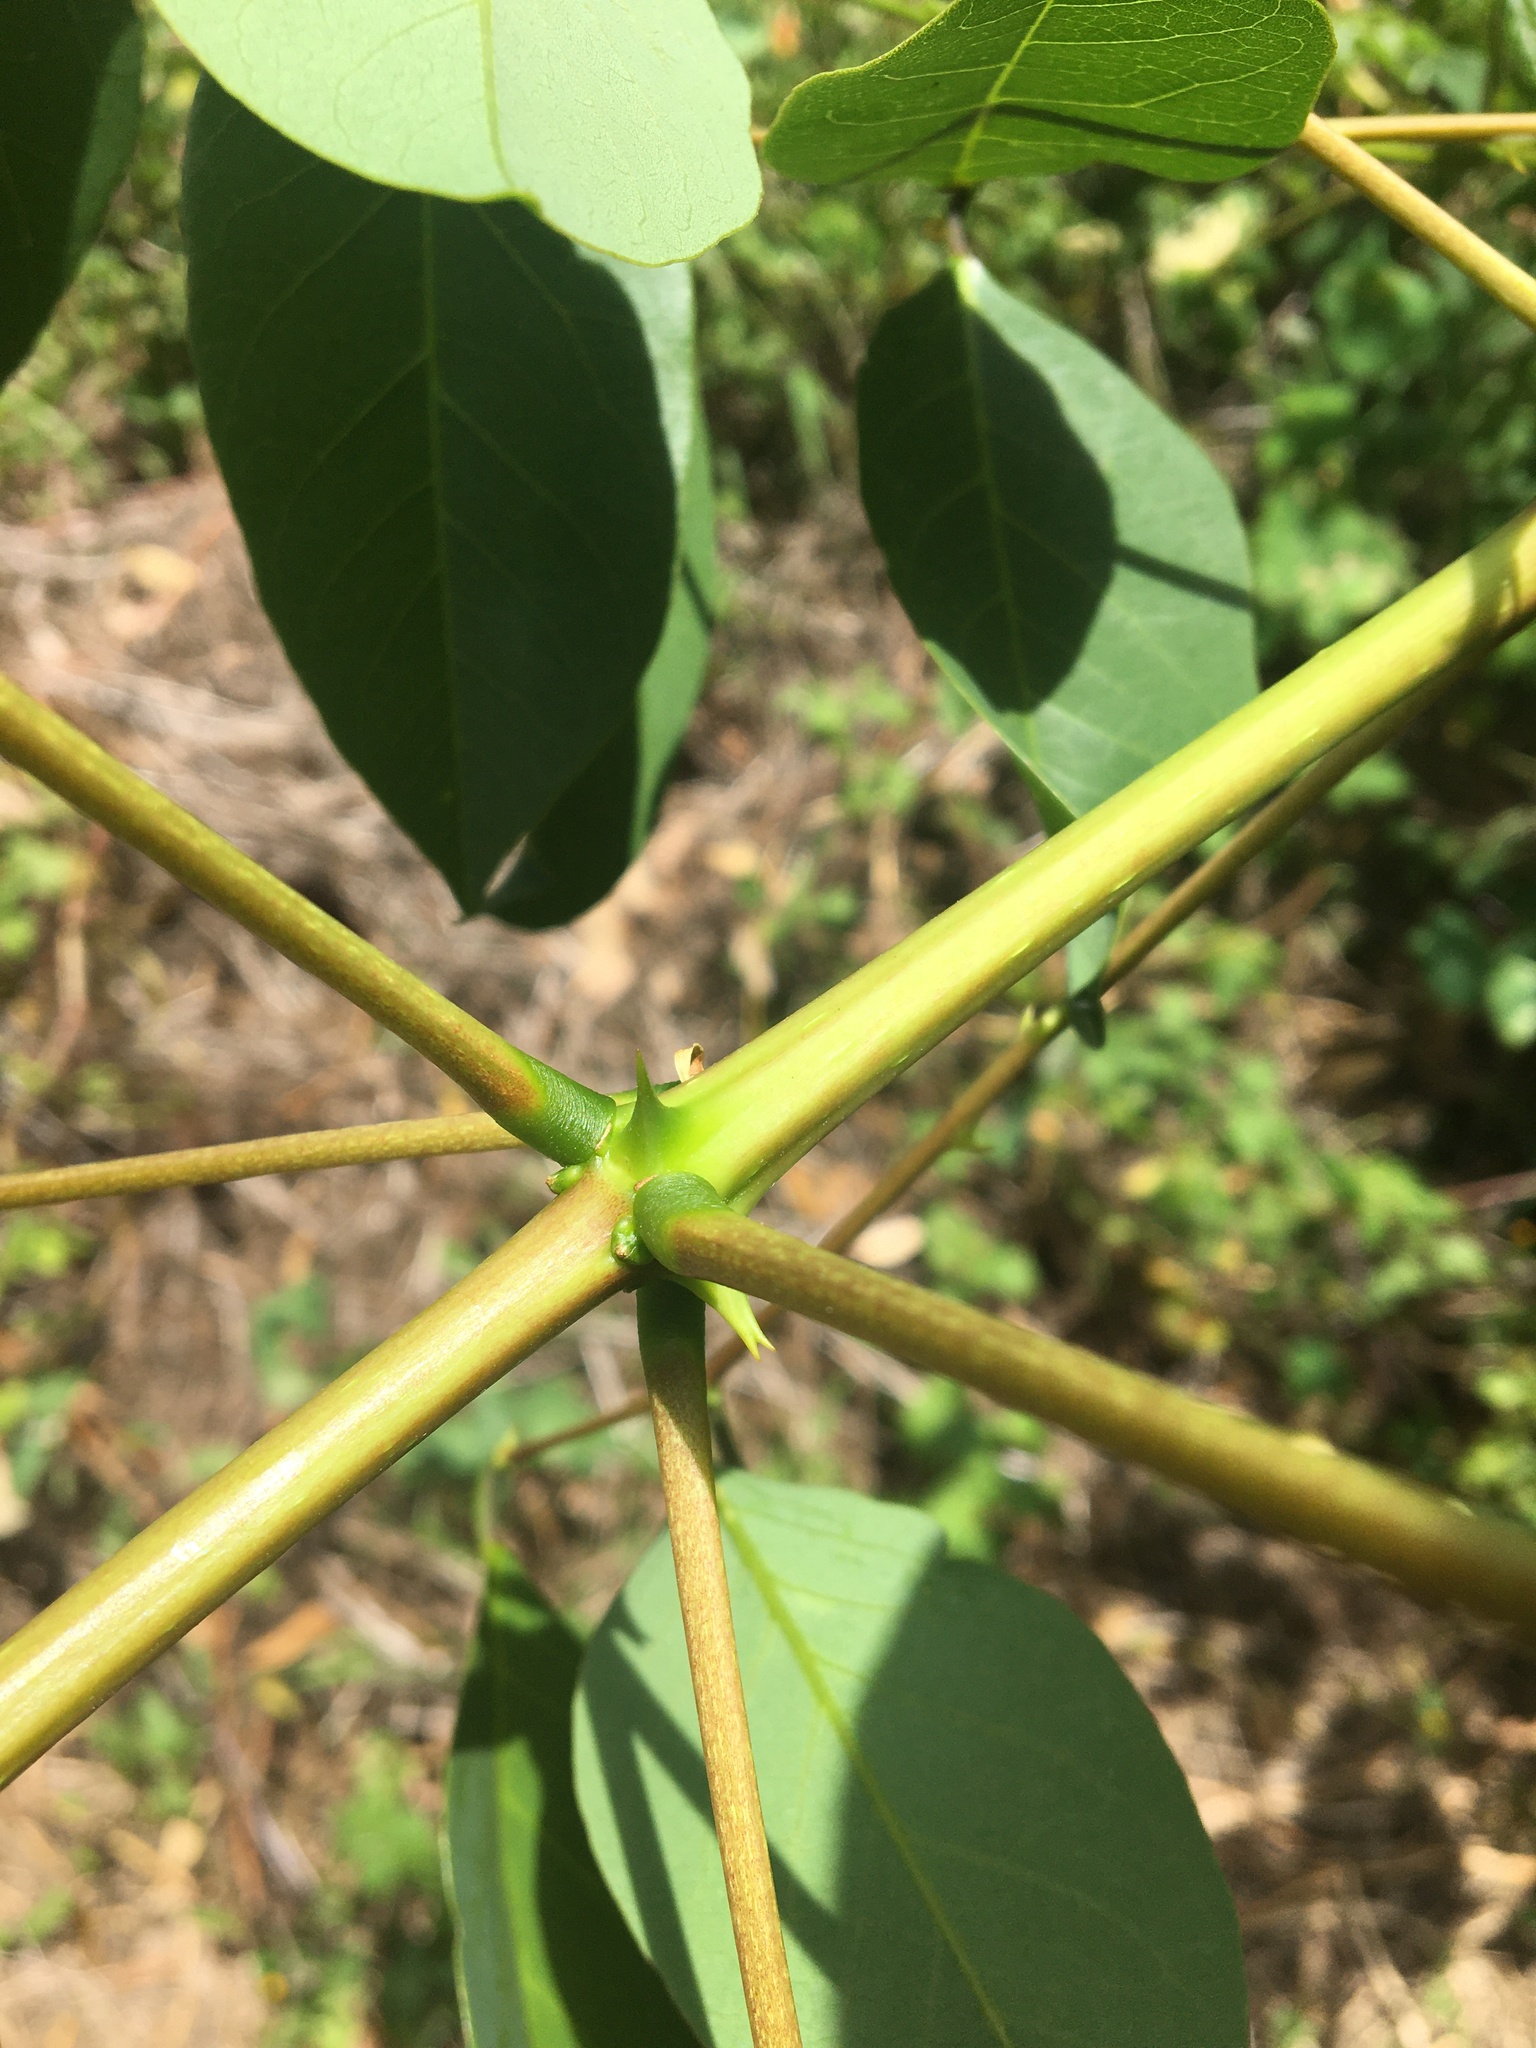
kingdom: Plantae
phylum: Tracheophyta
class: Magnoliopsida
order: Fabales
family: Fabaceae
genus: Erythrina
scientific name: Erythrina crista-galli
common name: Cockspur coral tree
